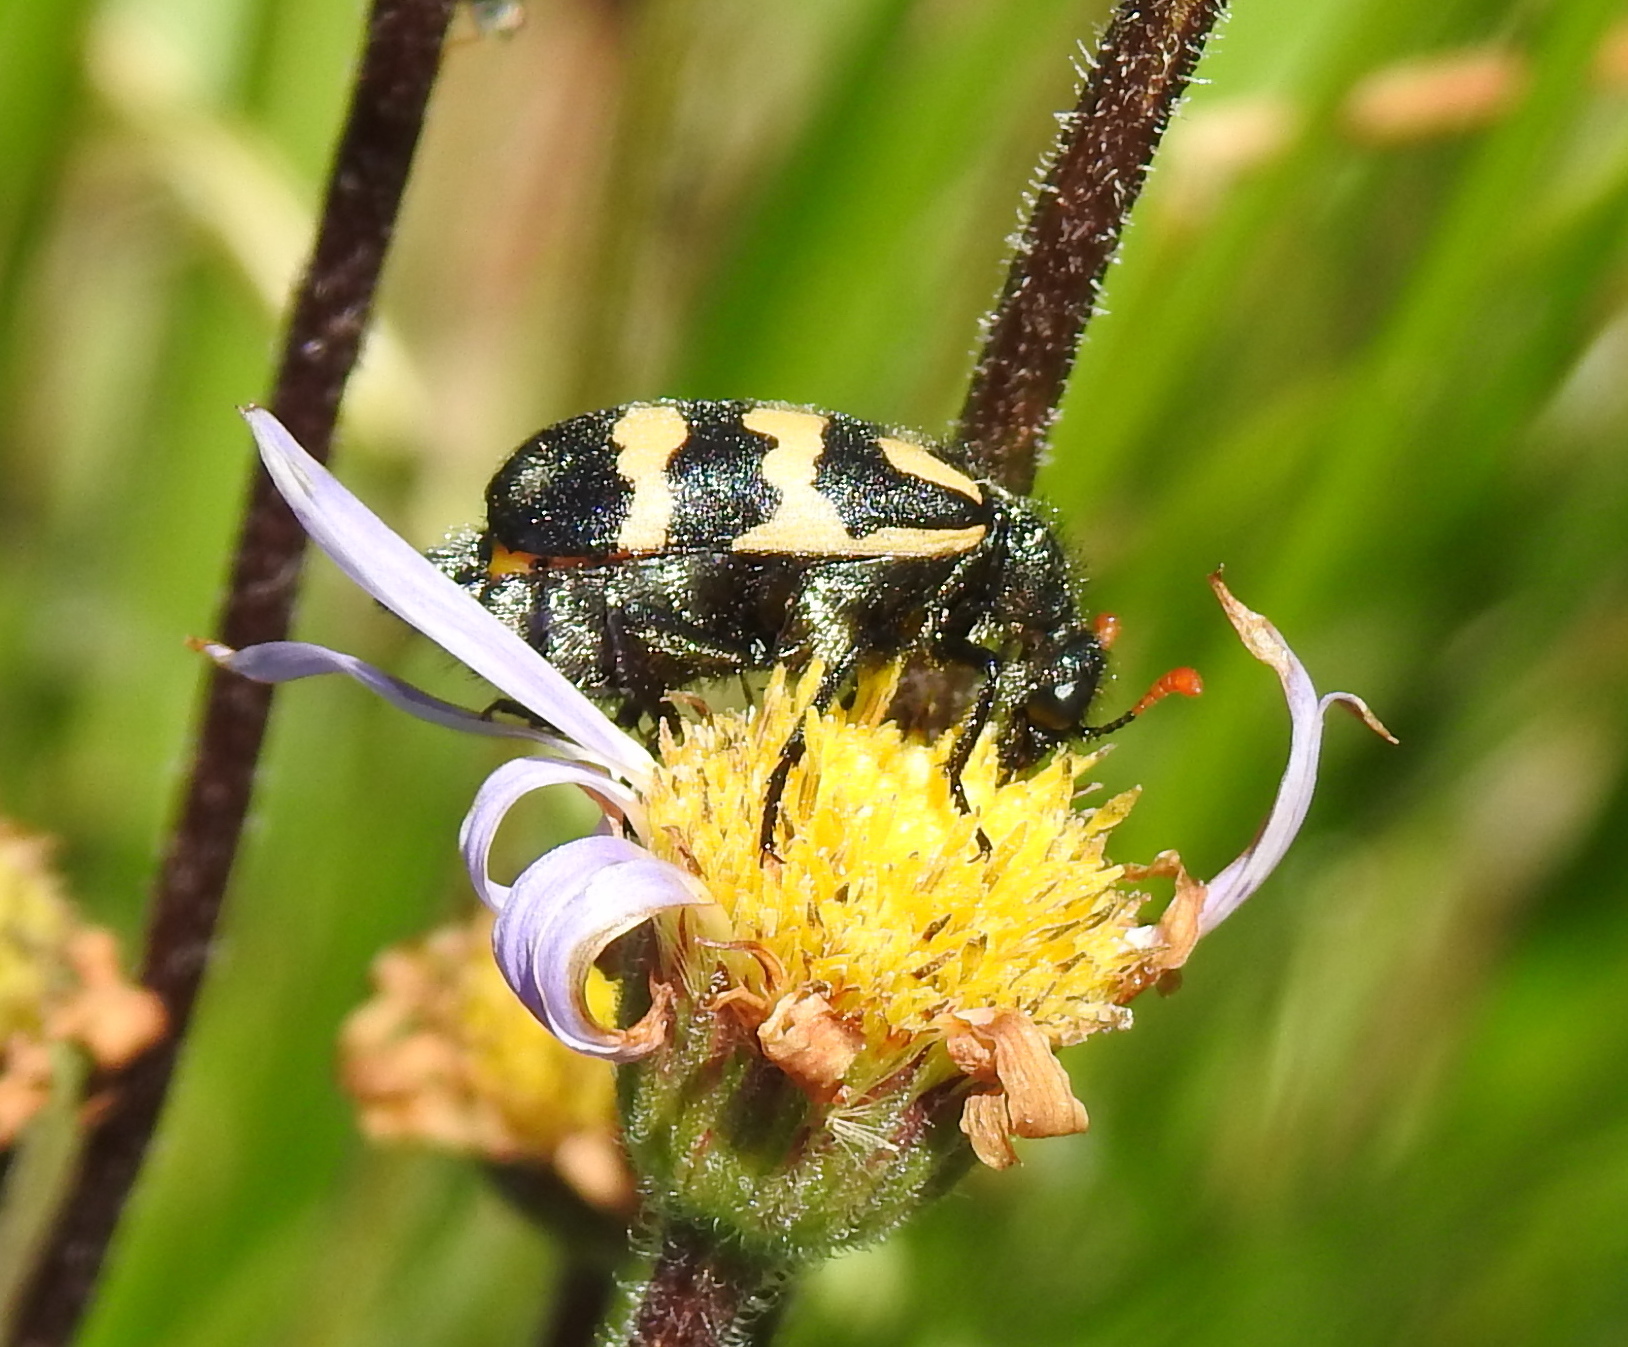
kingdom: Animalia
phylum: Arthropoda
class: Insecta
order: Coleoptera
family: Meloidae
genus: Meloe
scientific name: Meloe lunata
